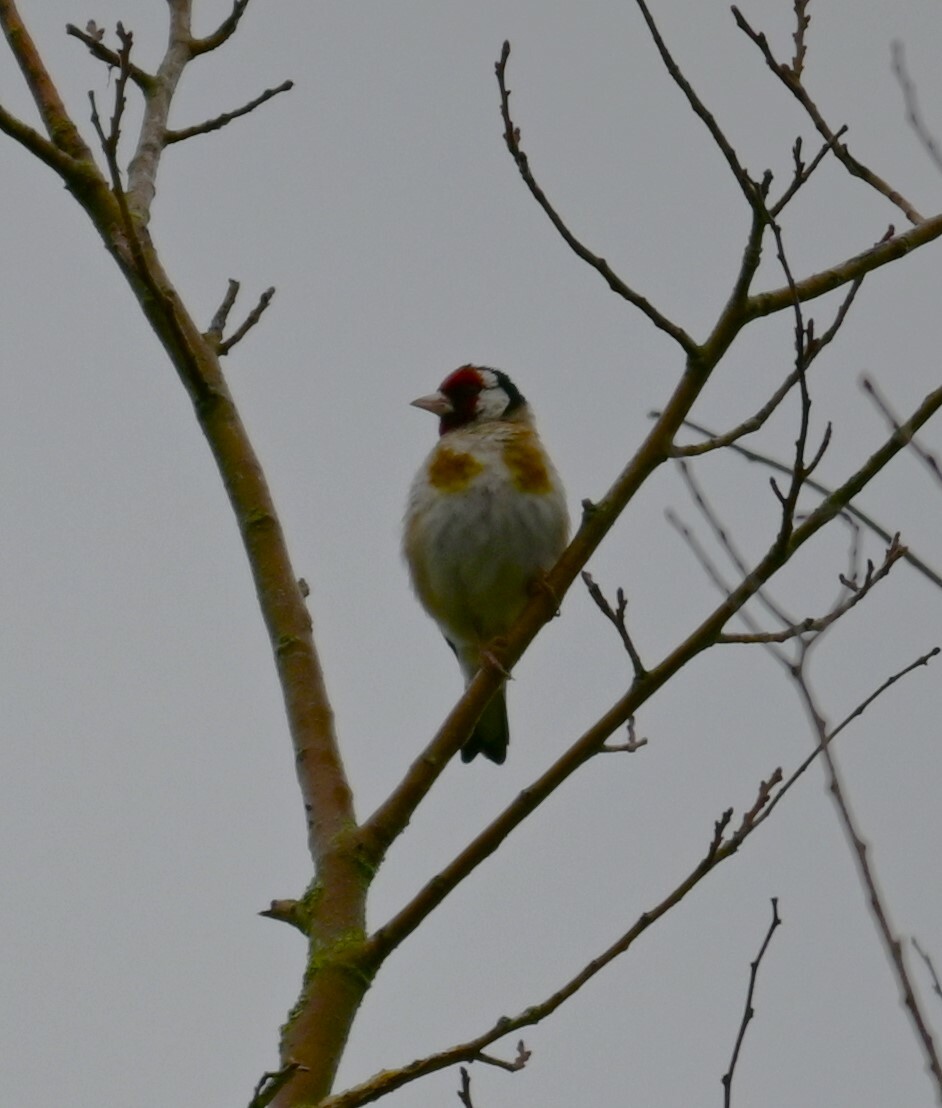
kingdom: Animalia
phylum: Chordata
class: Aves
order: Passeriformes
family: Fringillidae
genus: Carduelis
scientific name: Carduelis carduelis
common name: European goldfinch
